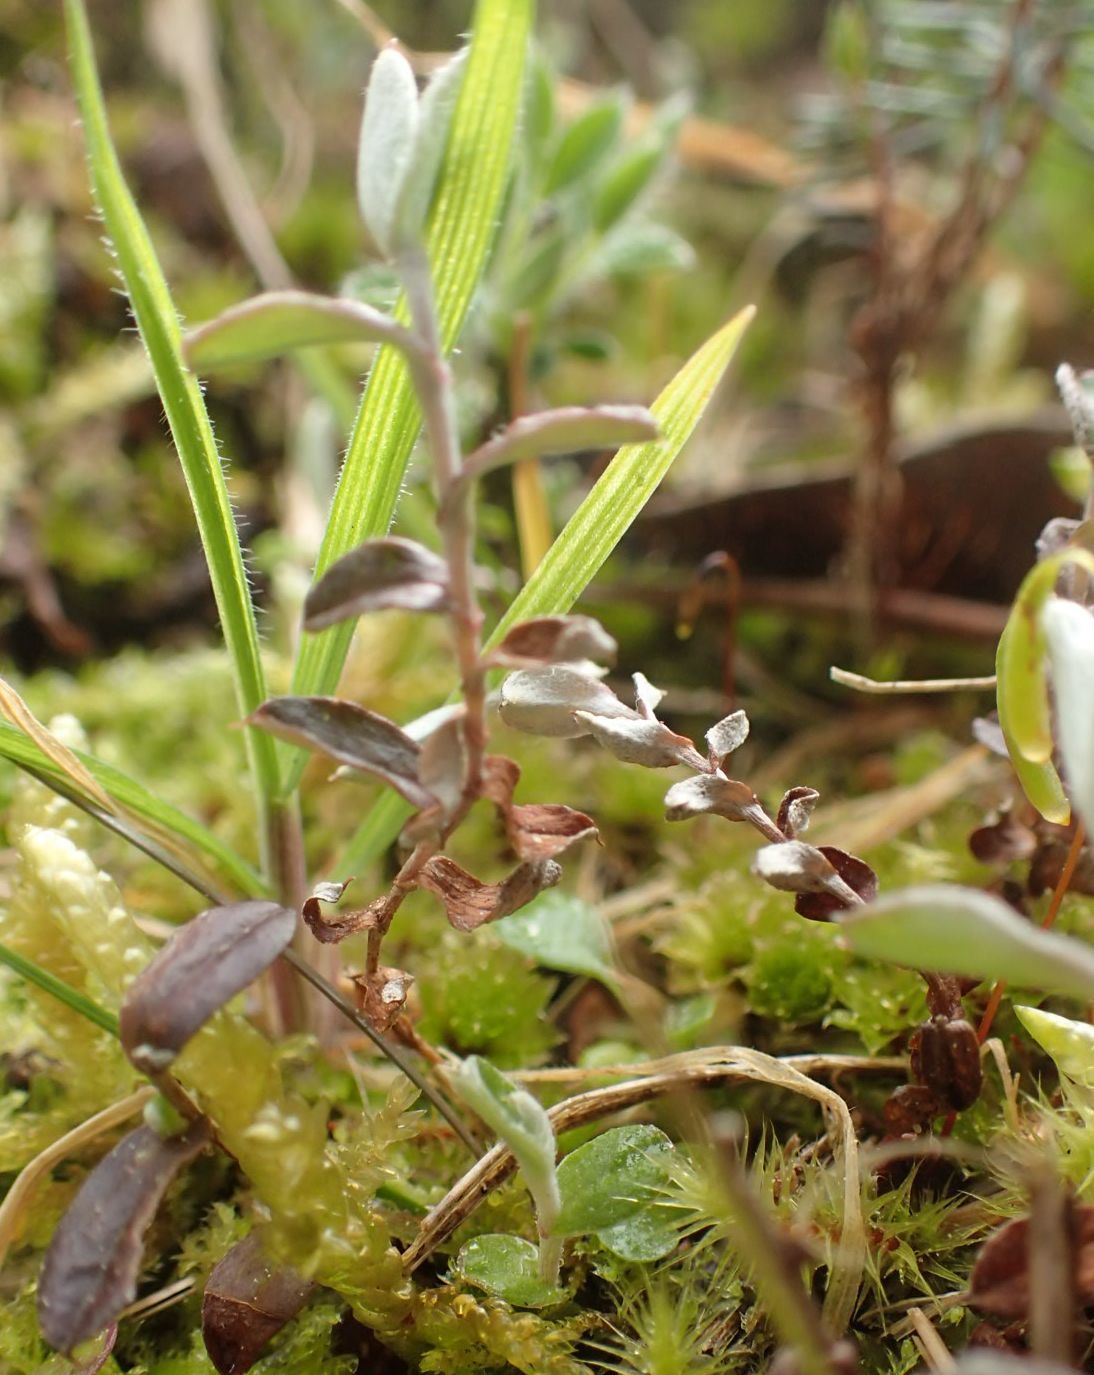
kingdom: Plantae
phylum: Tracheophyta
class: Magnoliopsida
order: Asterales
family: Asteraceae
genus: Helichrysum
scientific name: Helichrysum filicaule
